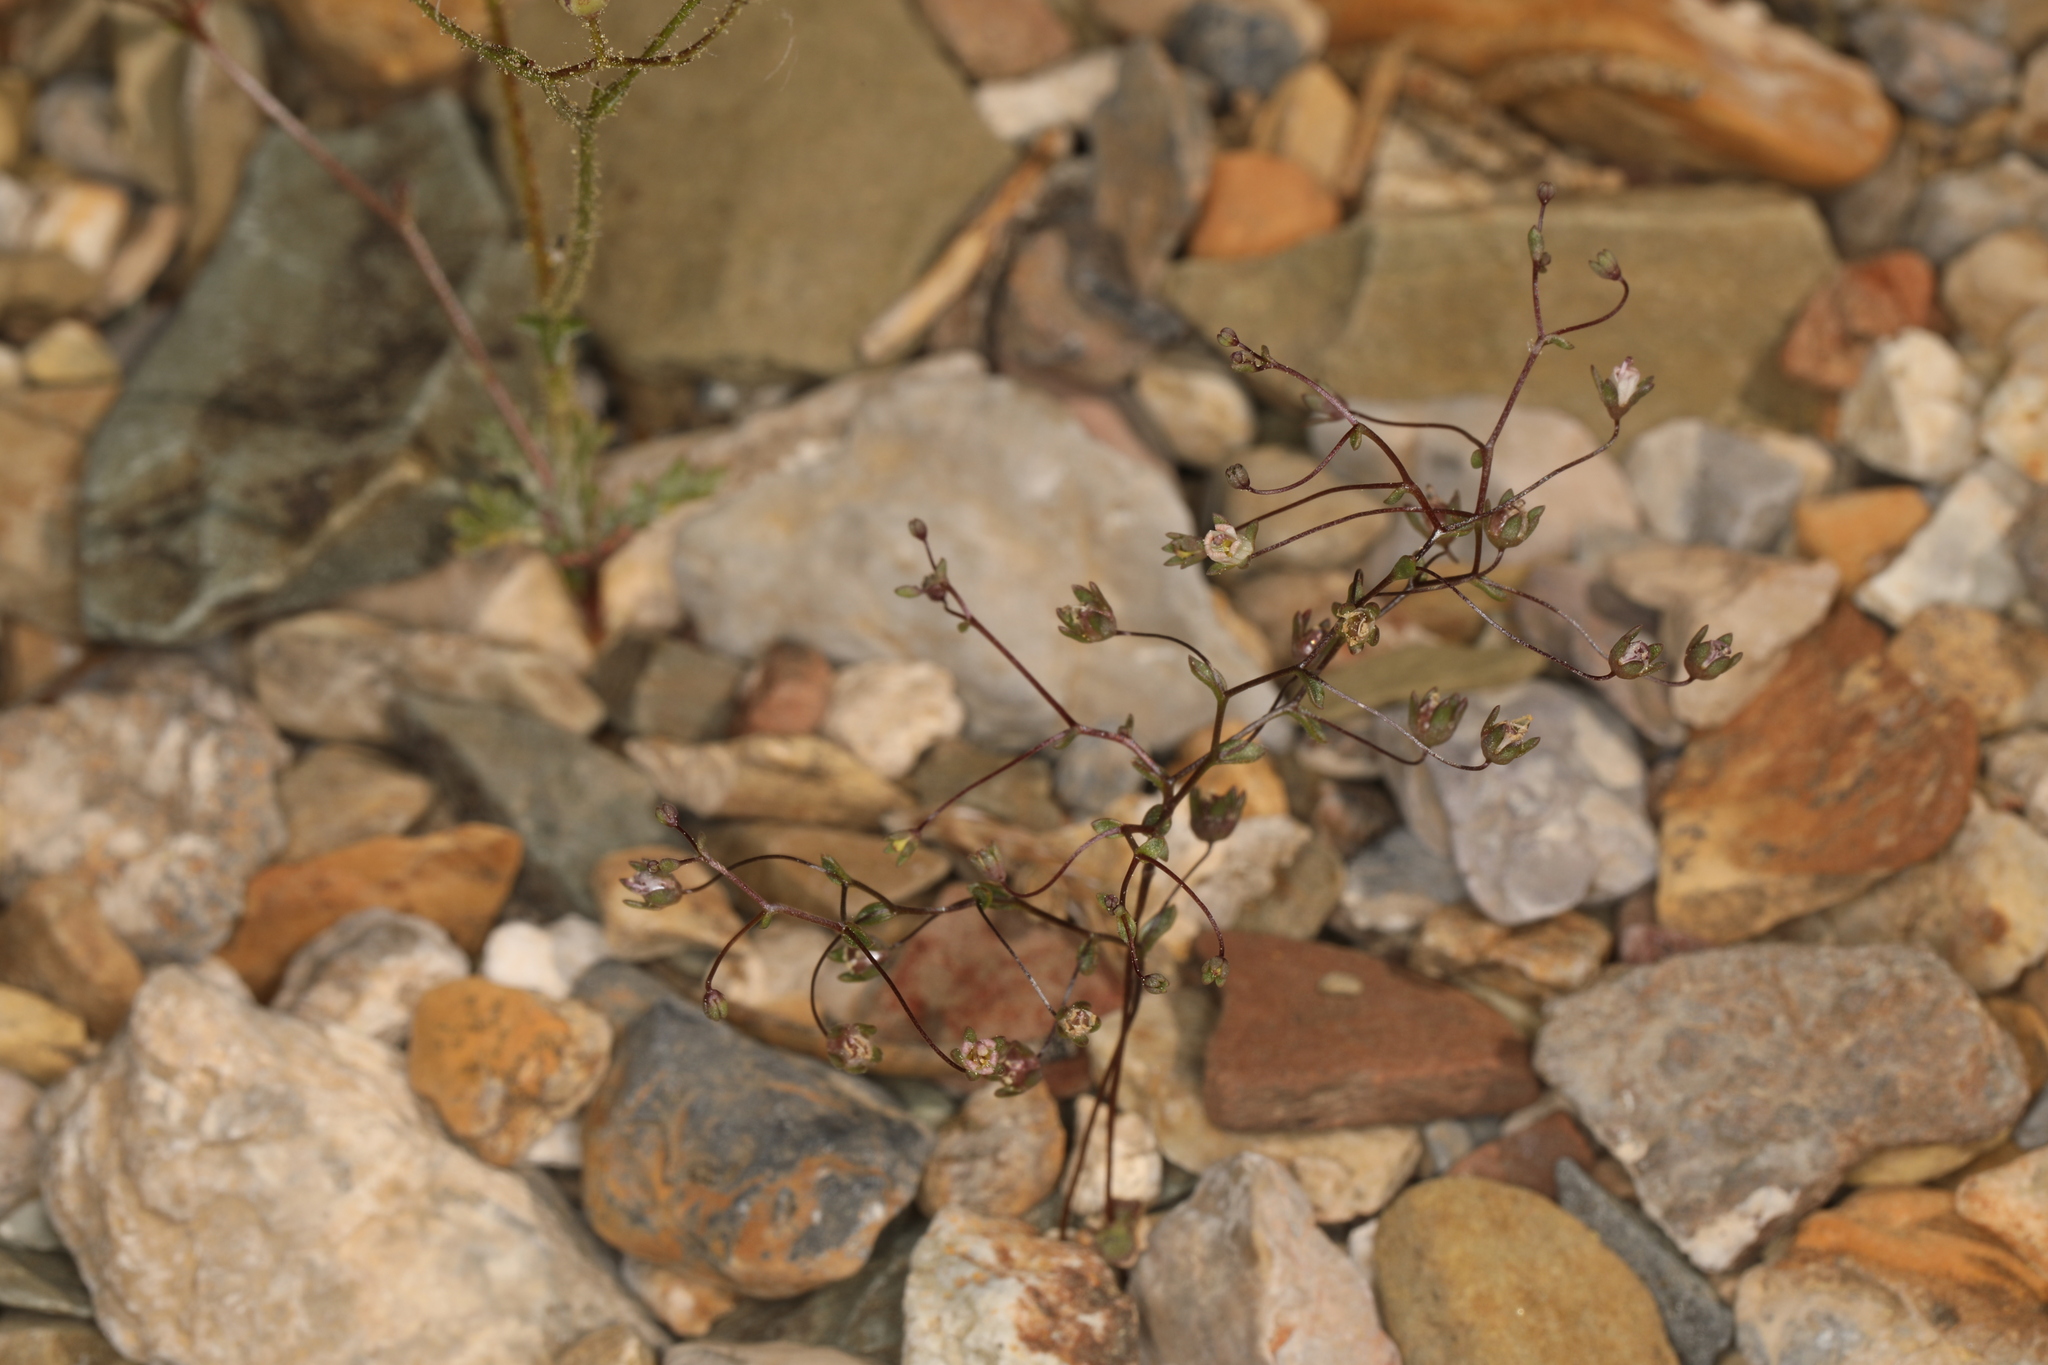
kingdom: Plantae
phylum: Tracheophyta
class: Magnoliopsida
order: Asterales
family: Campanulaceae
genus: Nemacladus
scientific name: Nemacladus inyoensis
